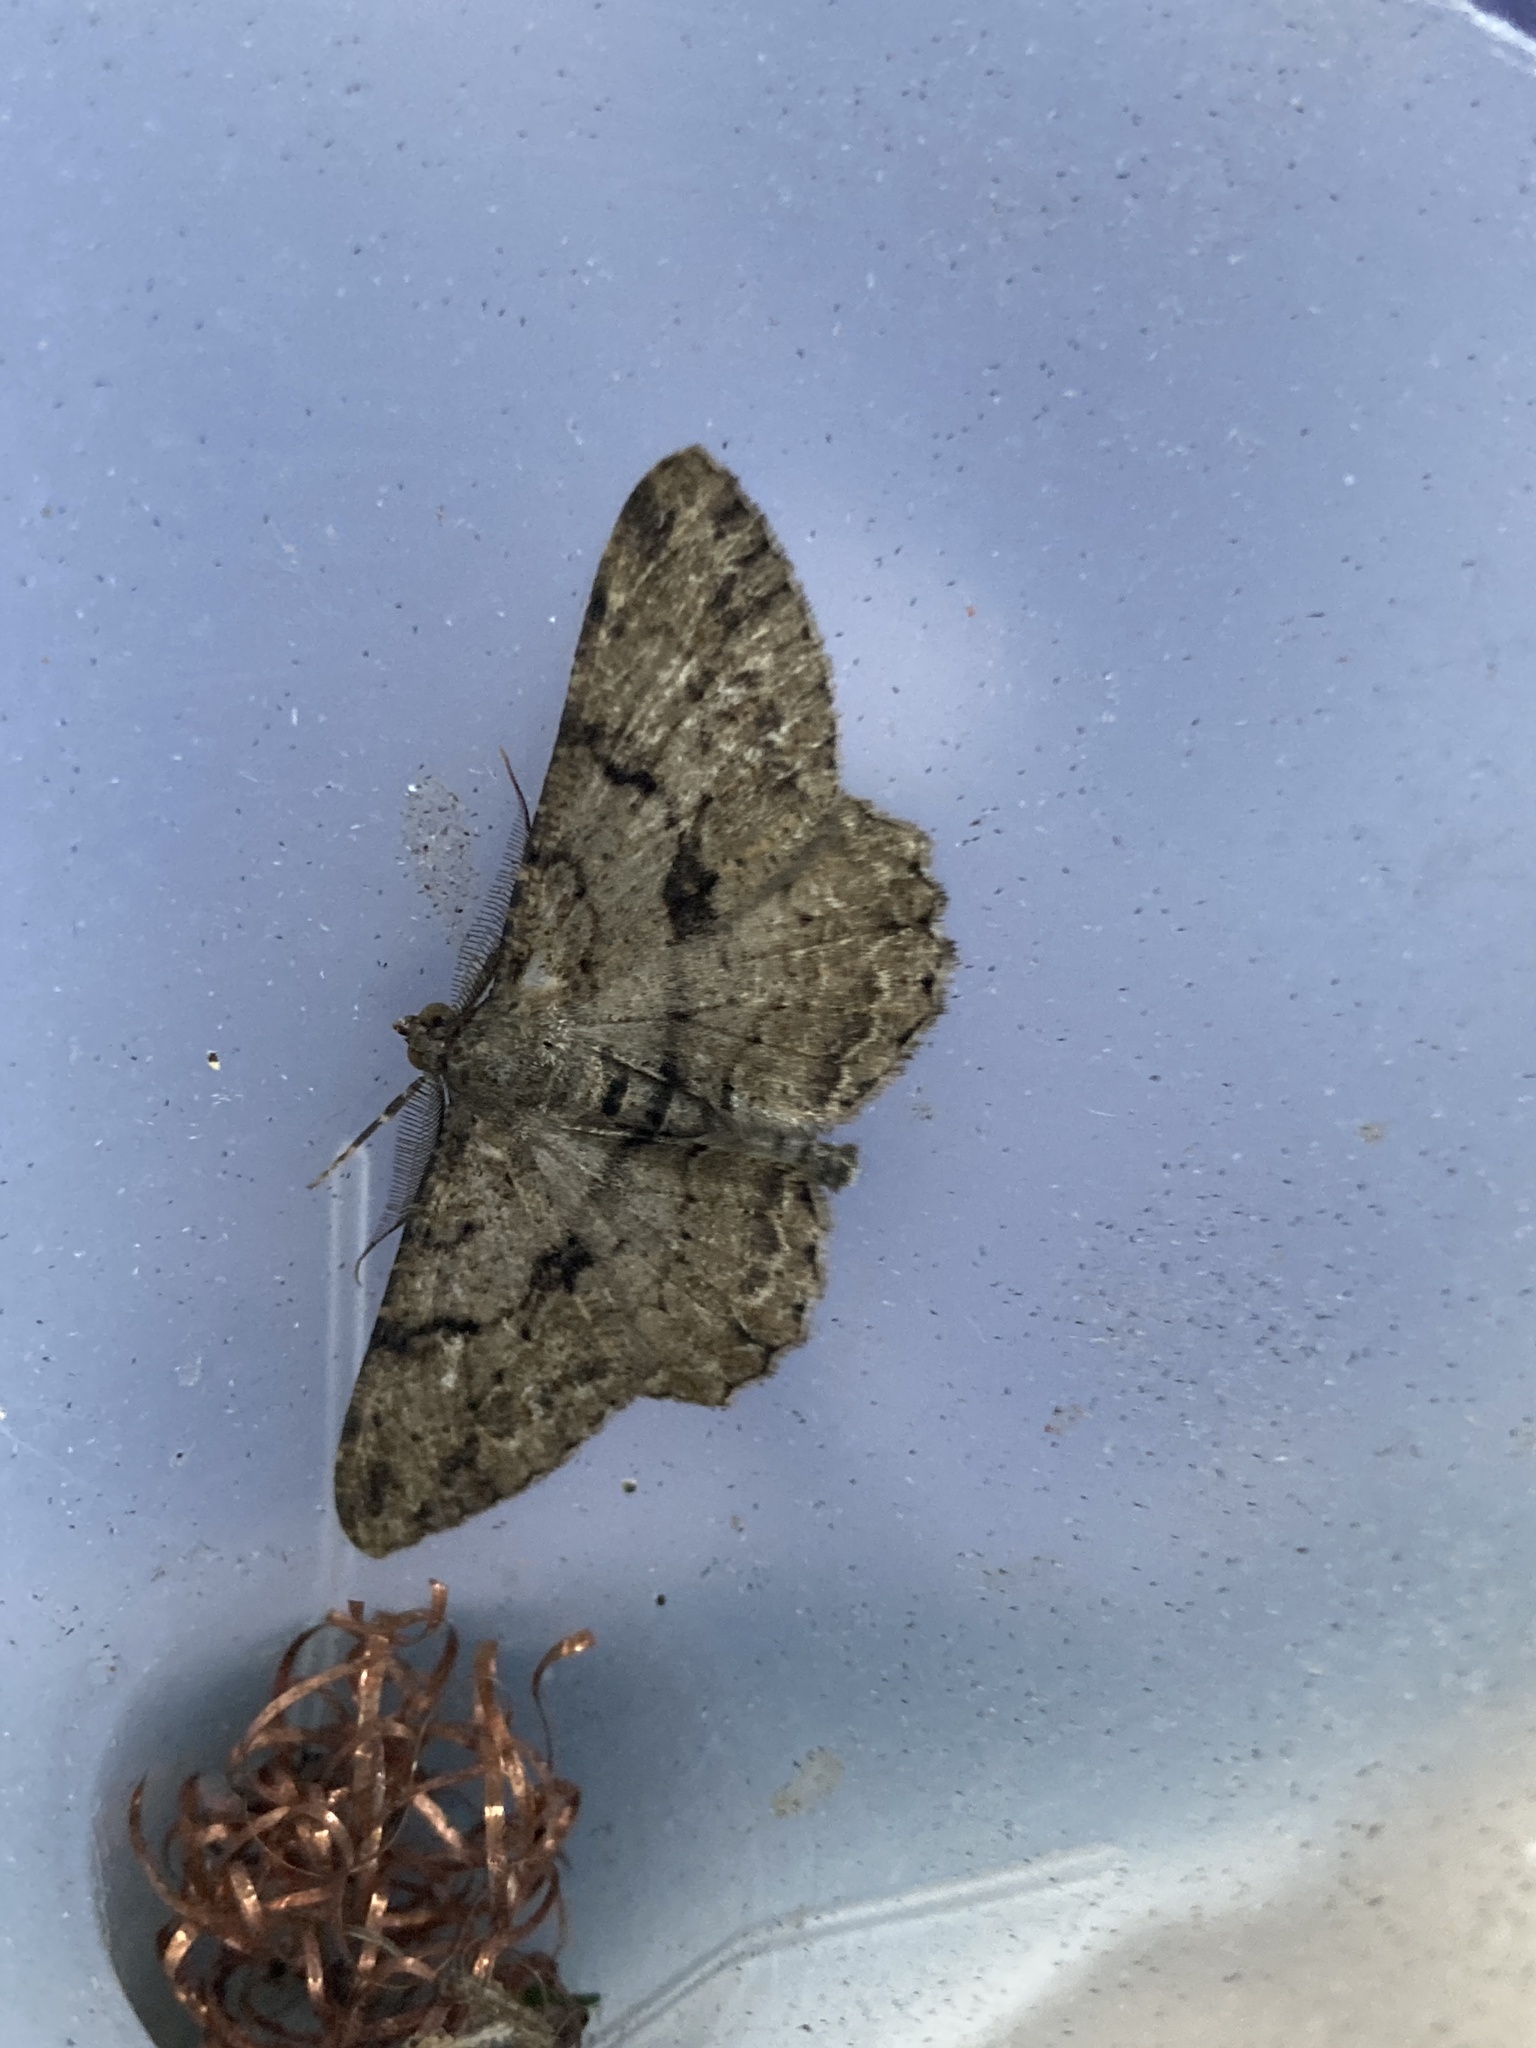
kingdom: Animalia
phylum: Arthropoda
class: Insecta
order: Lepidoptera
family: Geometridae
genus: Peribatodes
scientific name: Peribatodes rhomboidaria
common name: Willow beauty
